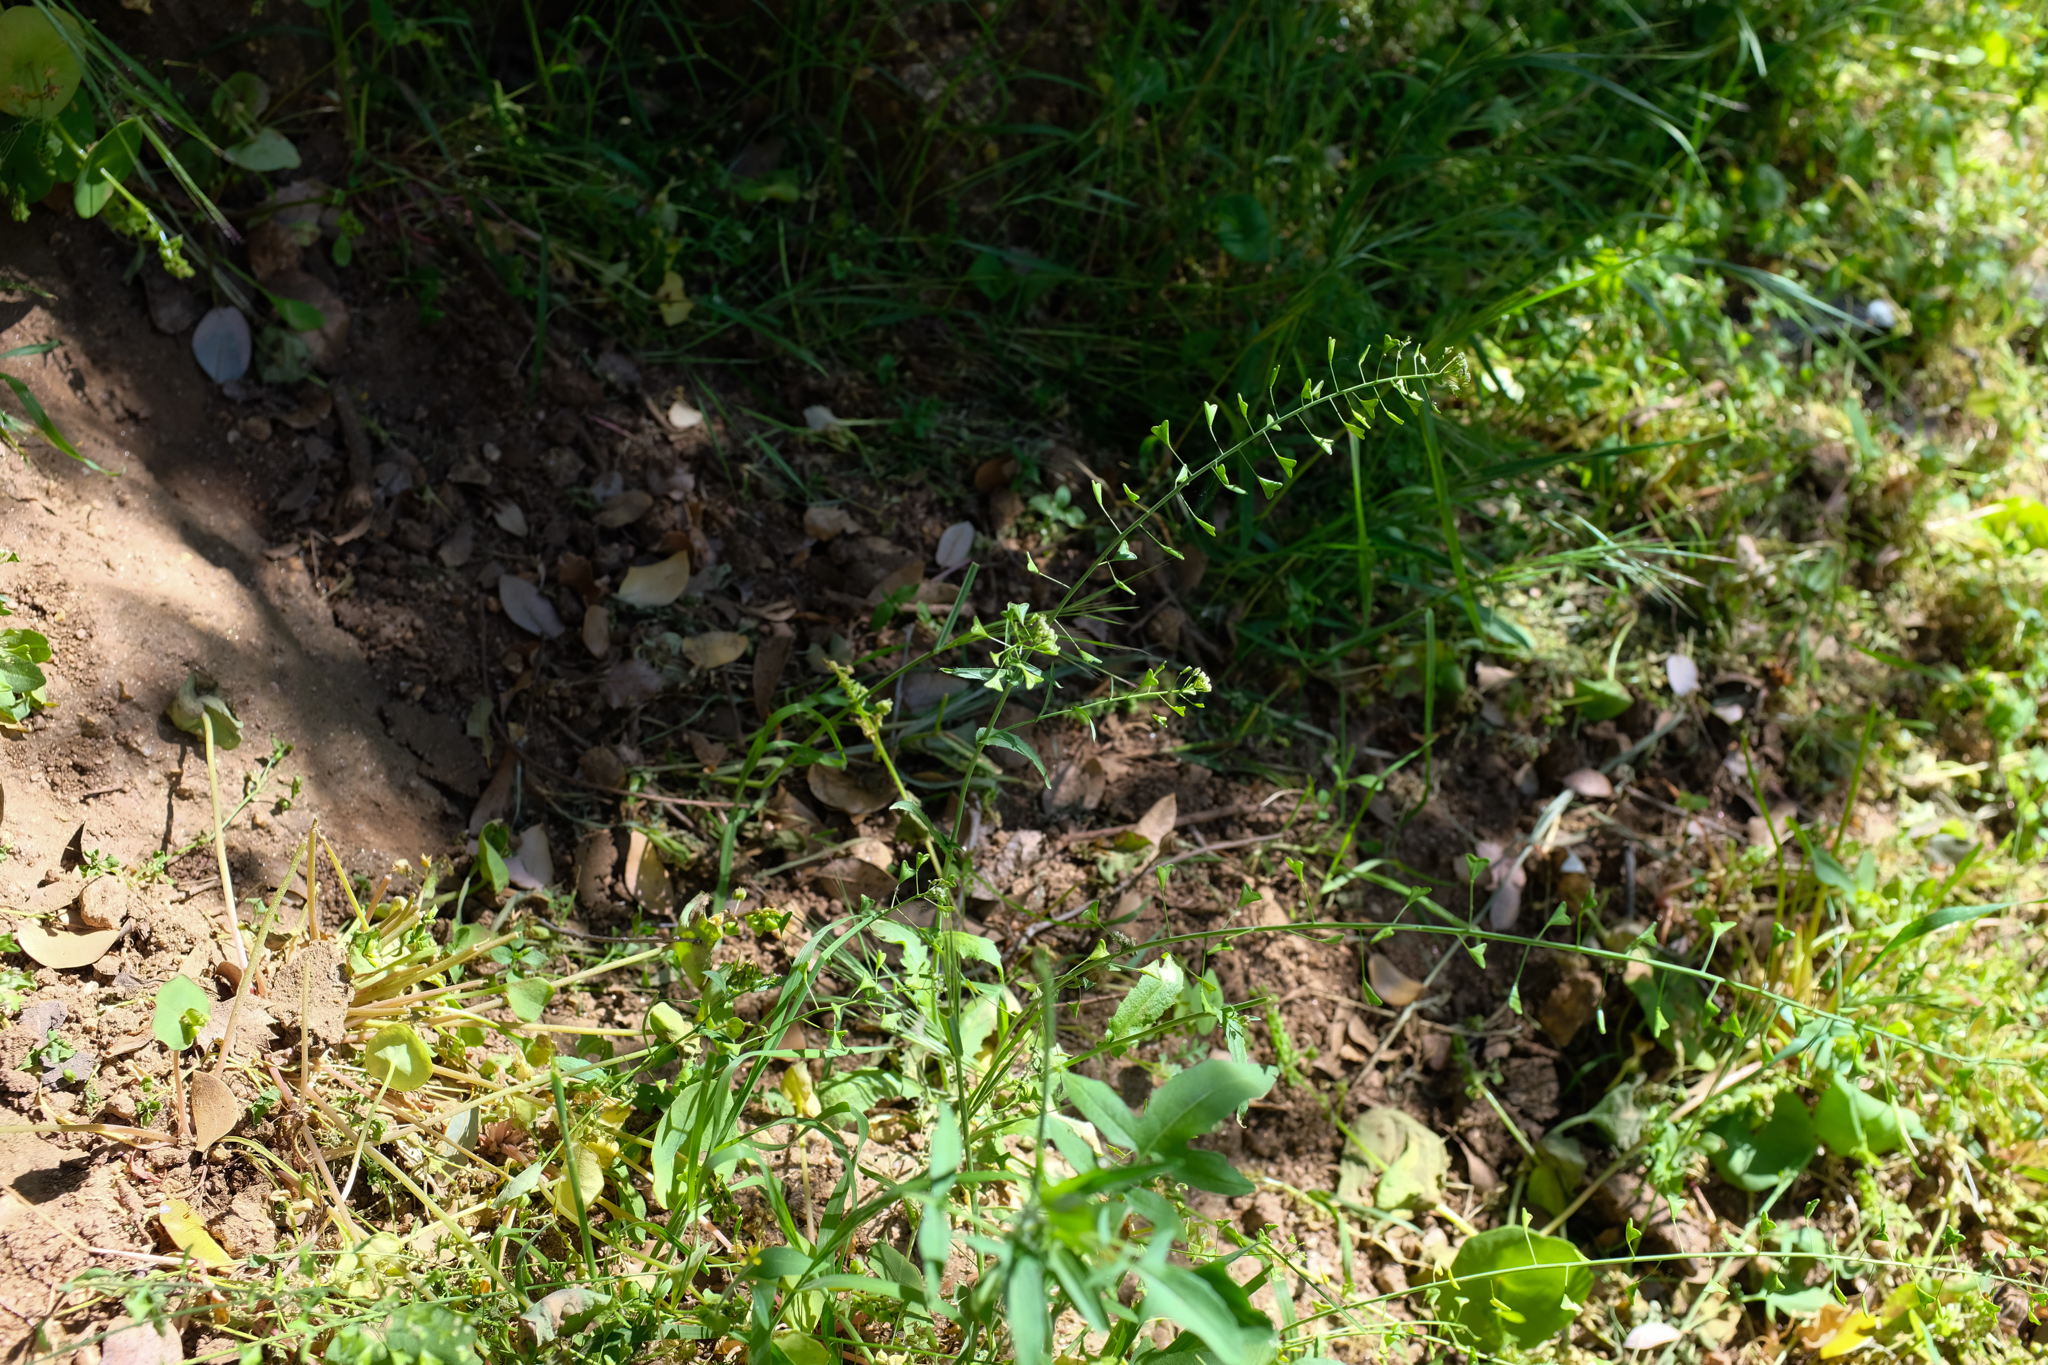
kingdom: Plantae
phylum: Tracheophyta
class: Magnoliopsida
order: Brassicales
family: Brassicaceae
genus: Capsella
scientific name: Capsella bursa-pastoris
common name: Shepherd's purse
